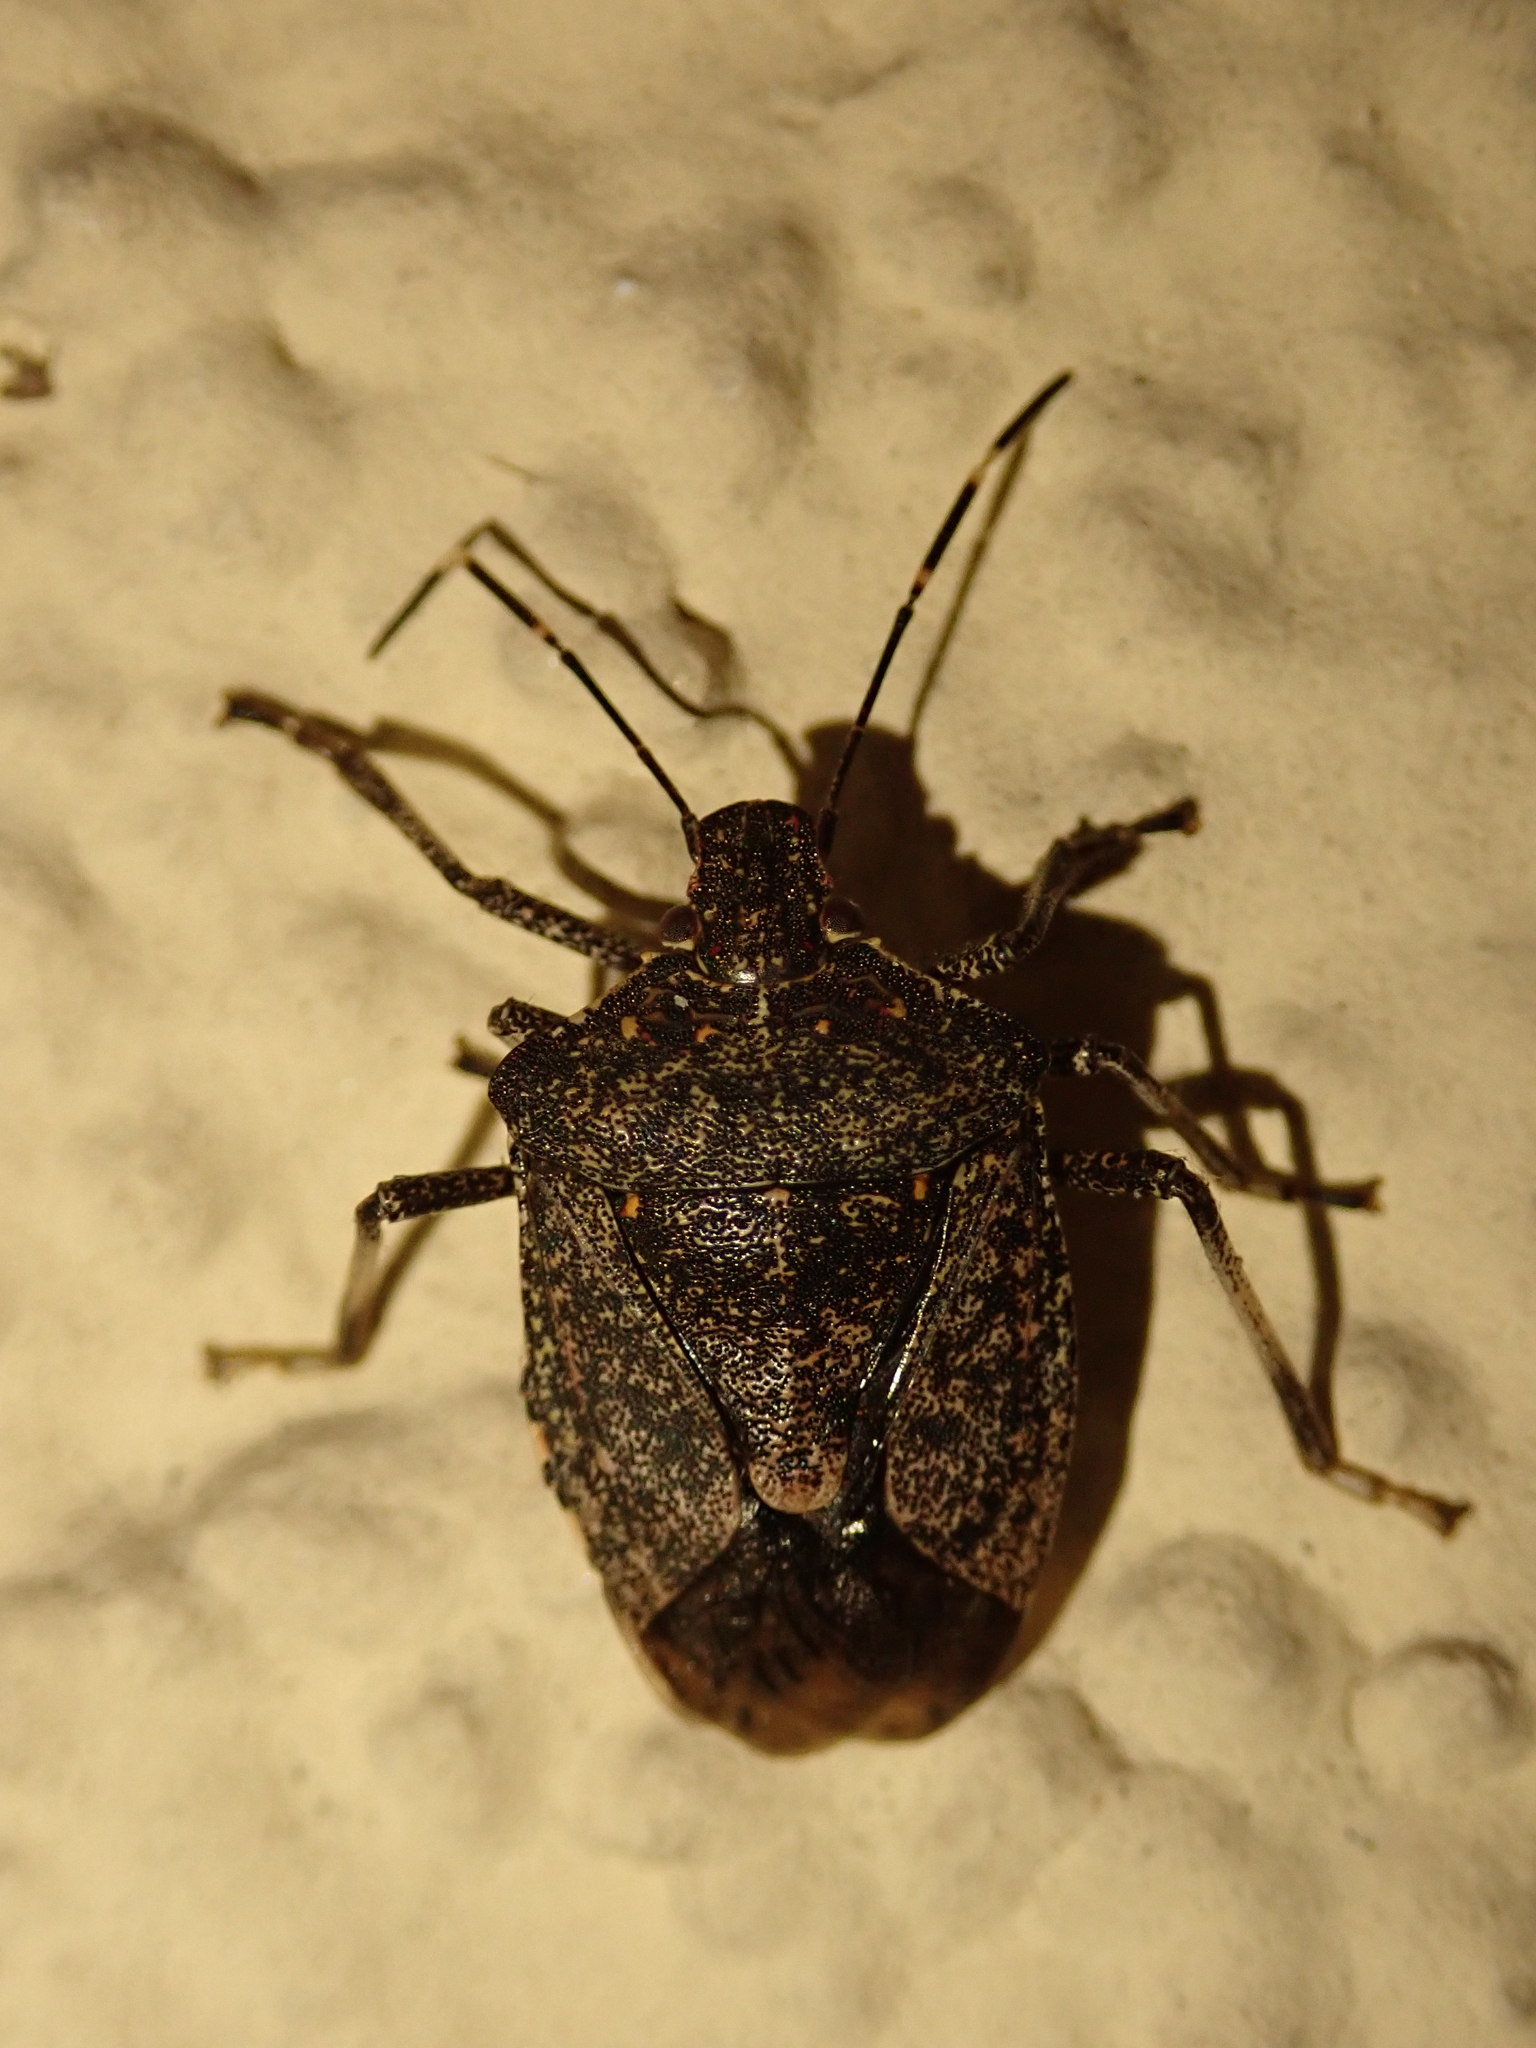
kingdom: Animalia
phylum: Arthropoda
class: Insecta
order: Hemiptera
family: Pentatomidae
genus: Halyomorpha
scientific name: Halyomorpha halys
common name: Brown marmorated stink bug
